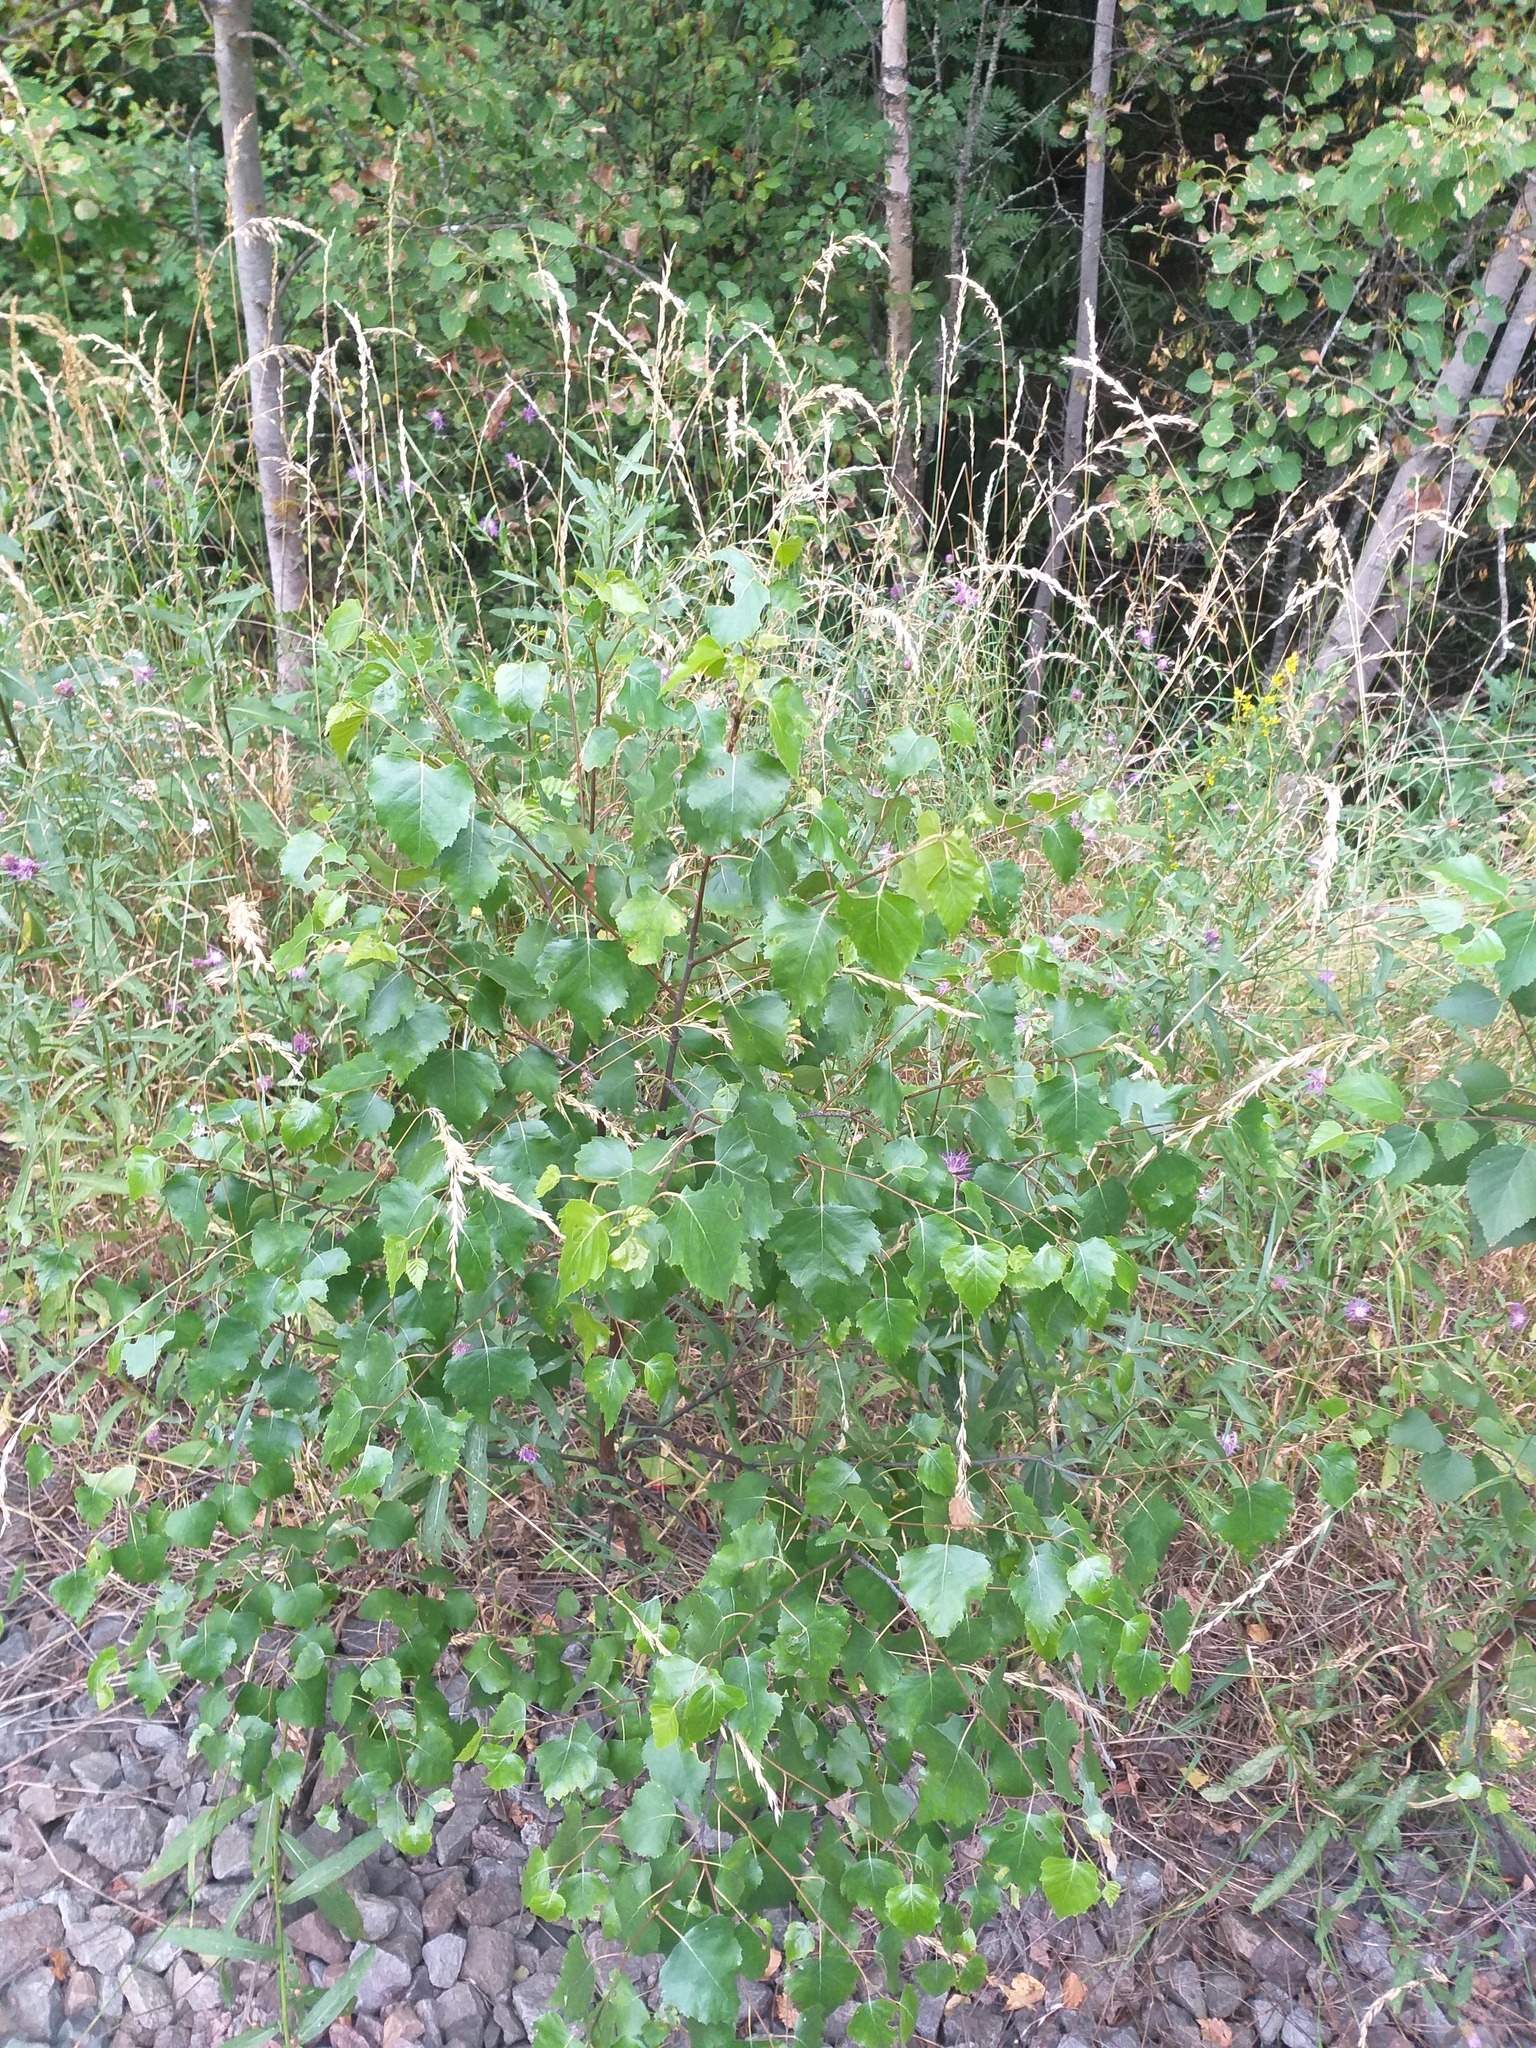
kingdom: Plantae
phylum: Tracheophyta
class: Magnoliopsida
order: Fagales
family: Betulaceae
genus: Betula
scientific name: Betula pendula
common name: Silver birch
